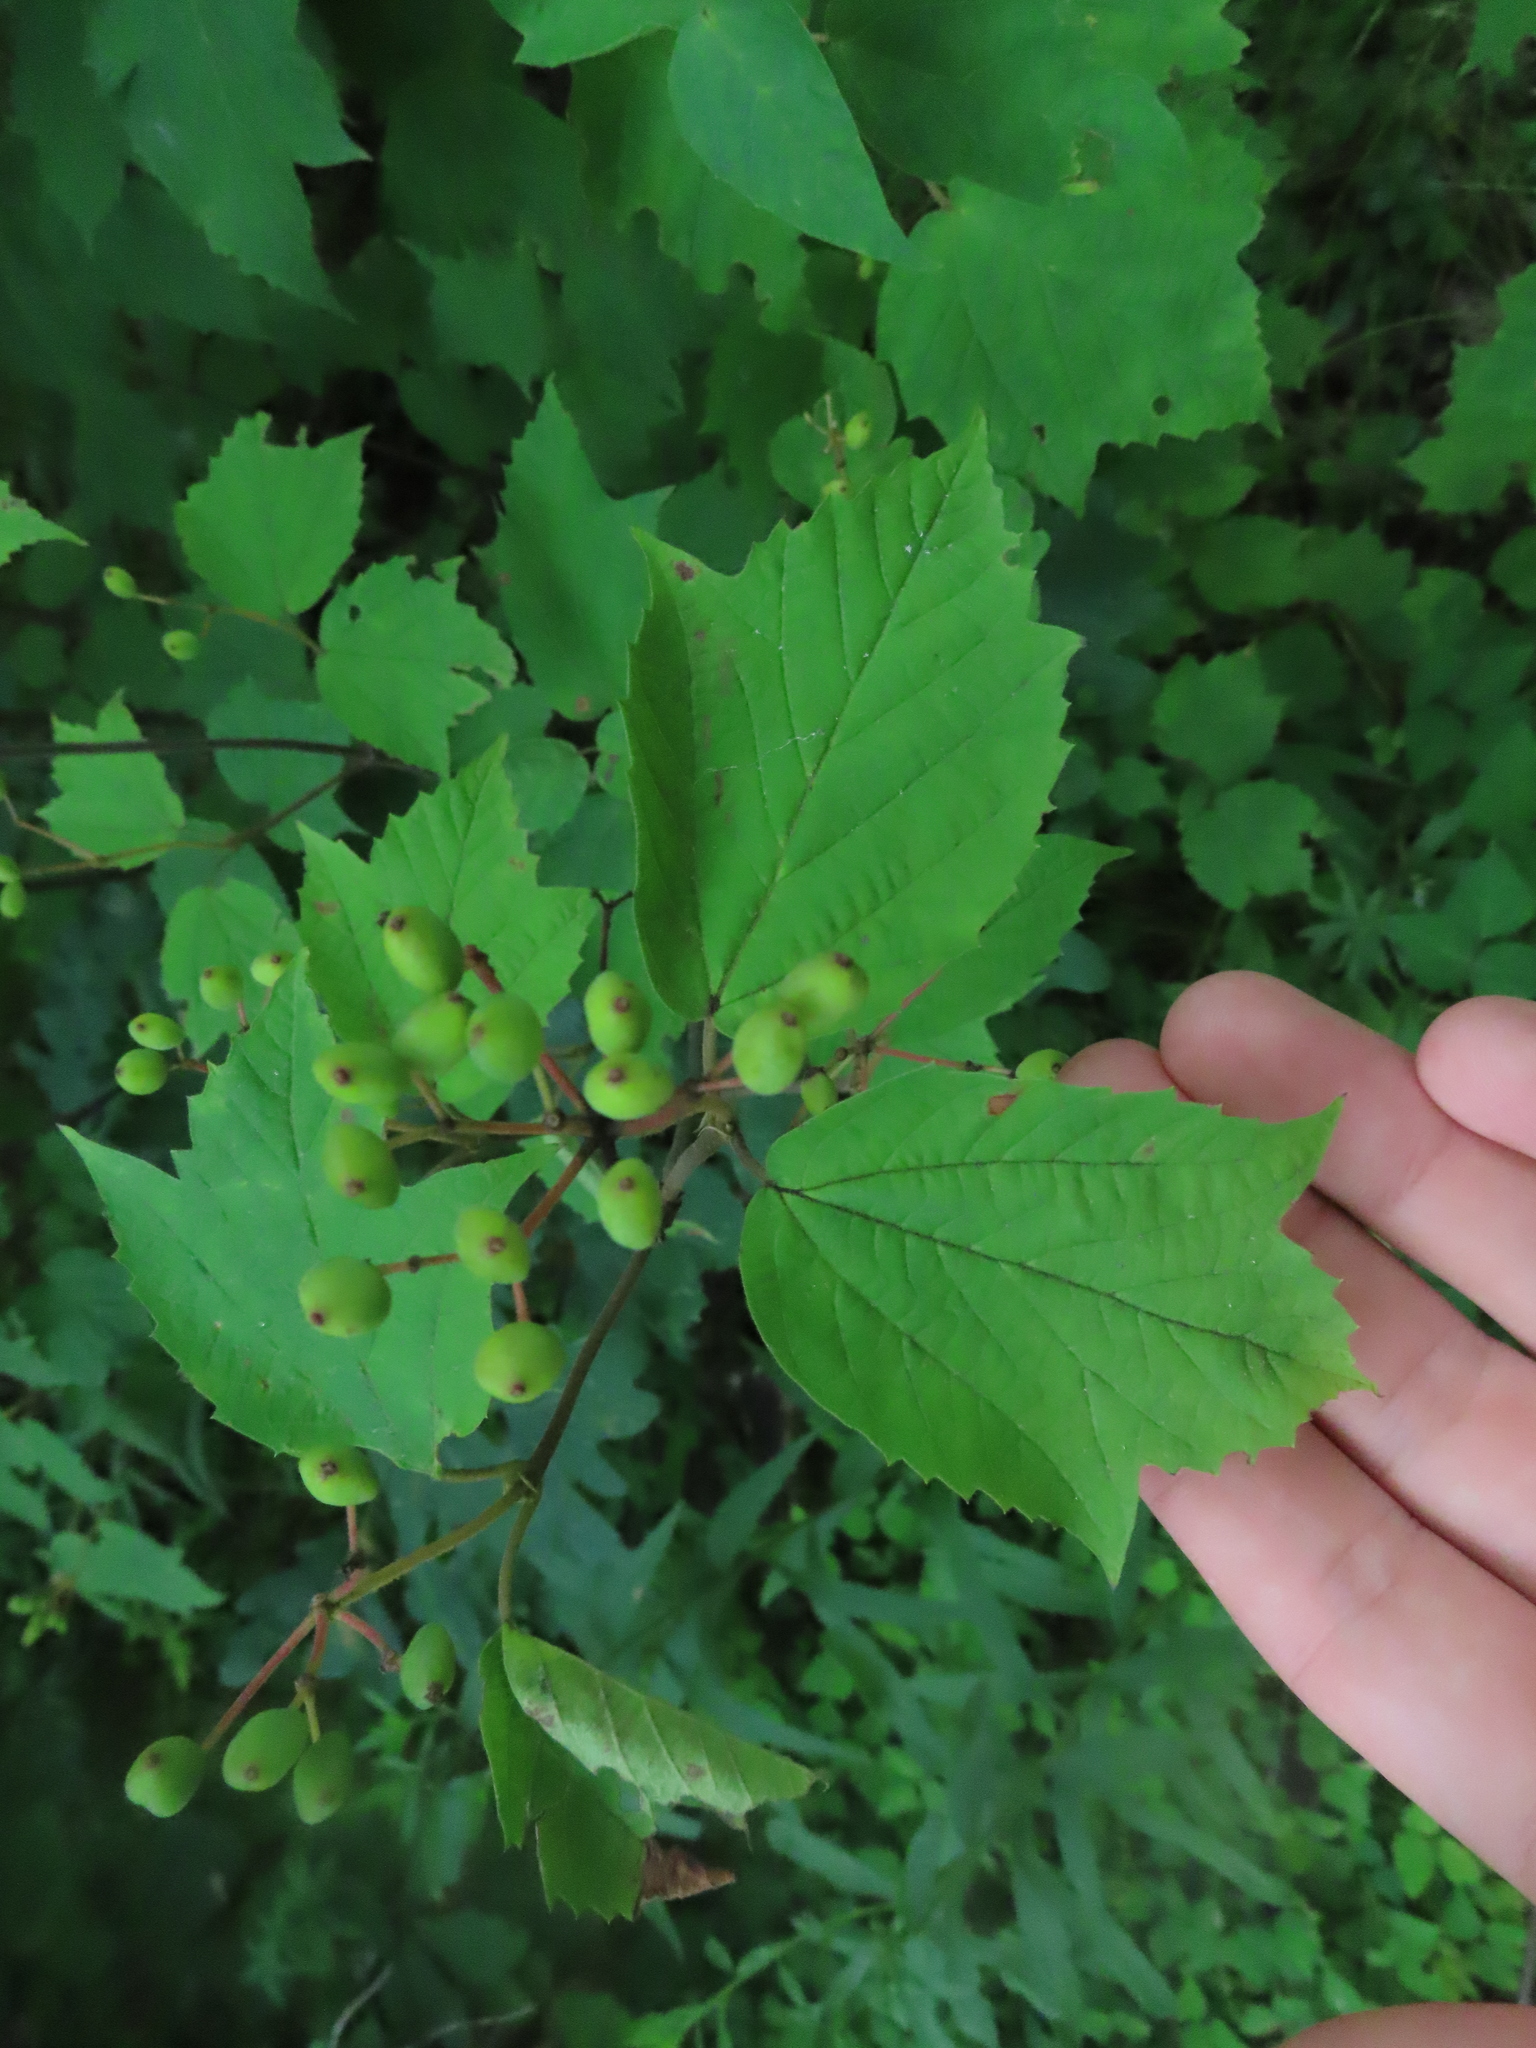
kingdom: Plantae
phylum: Tracheophyta
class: Magnoliopsida
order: Dipsacales
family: Viburnaceae
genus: Viburnum
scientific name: Viburnum acerifolium
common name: Dockmackie
